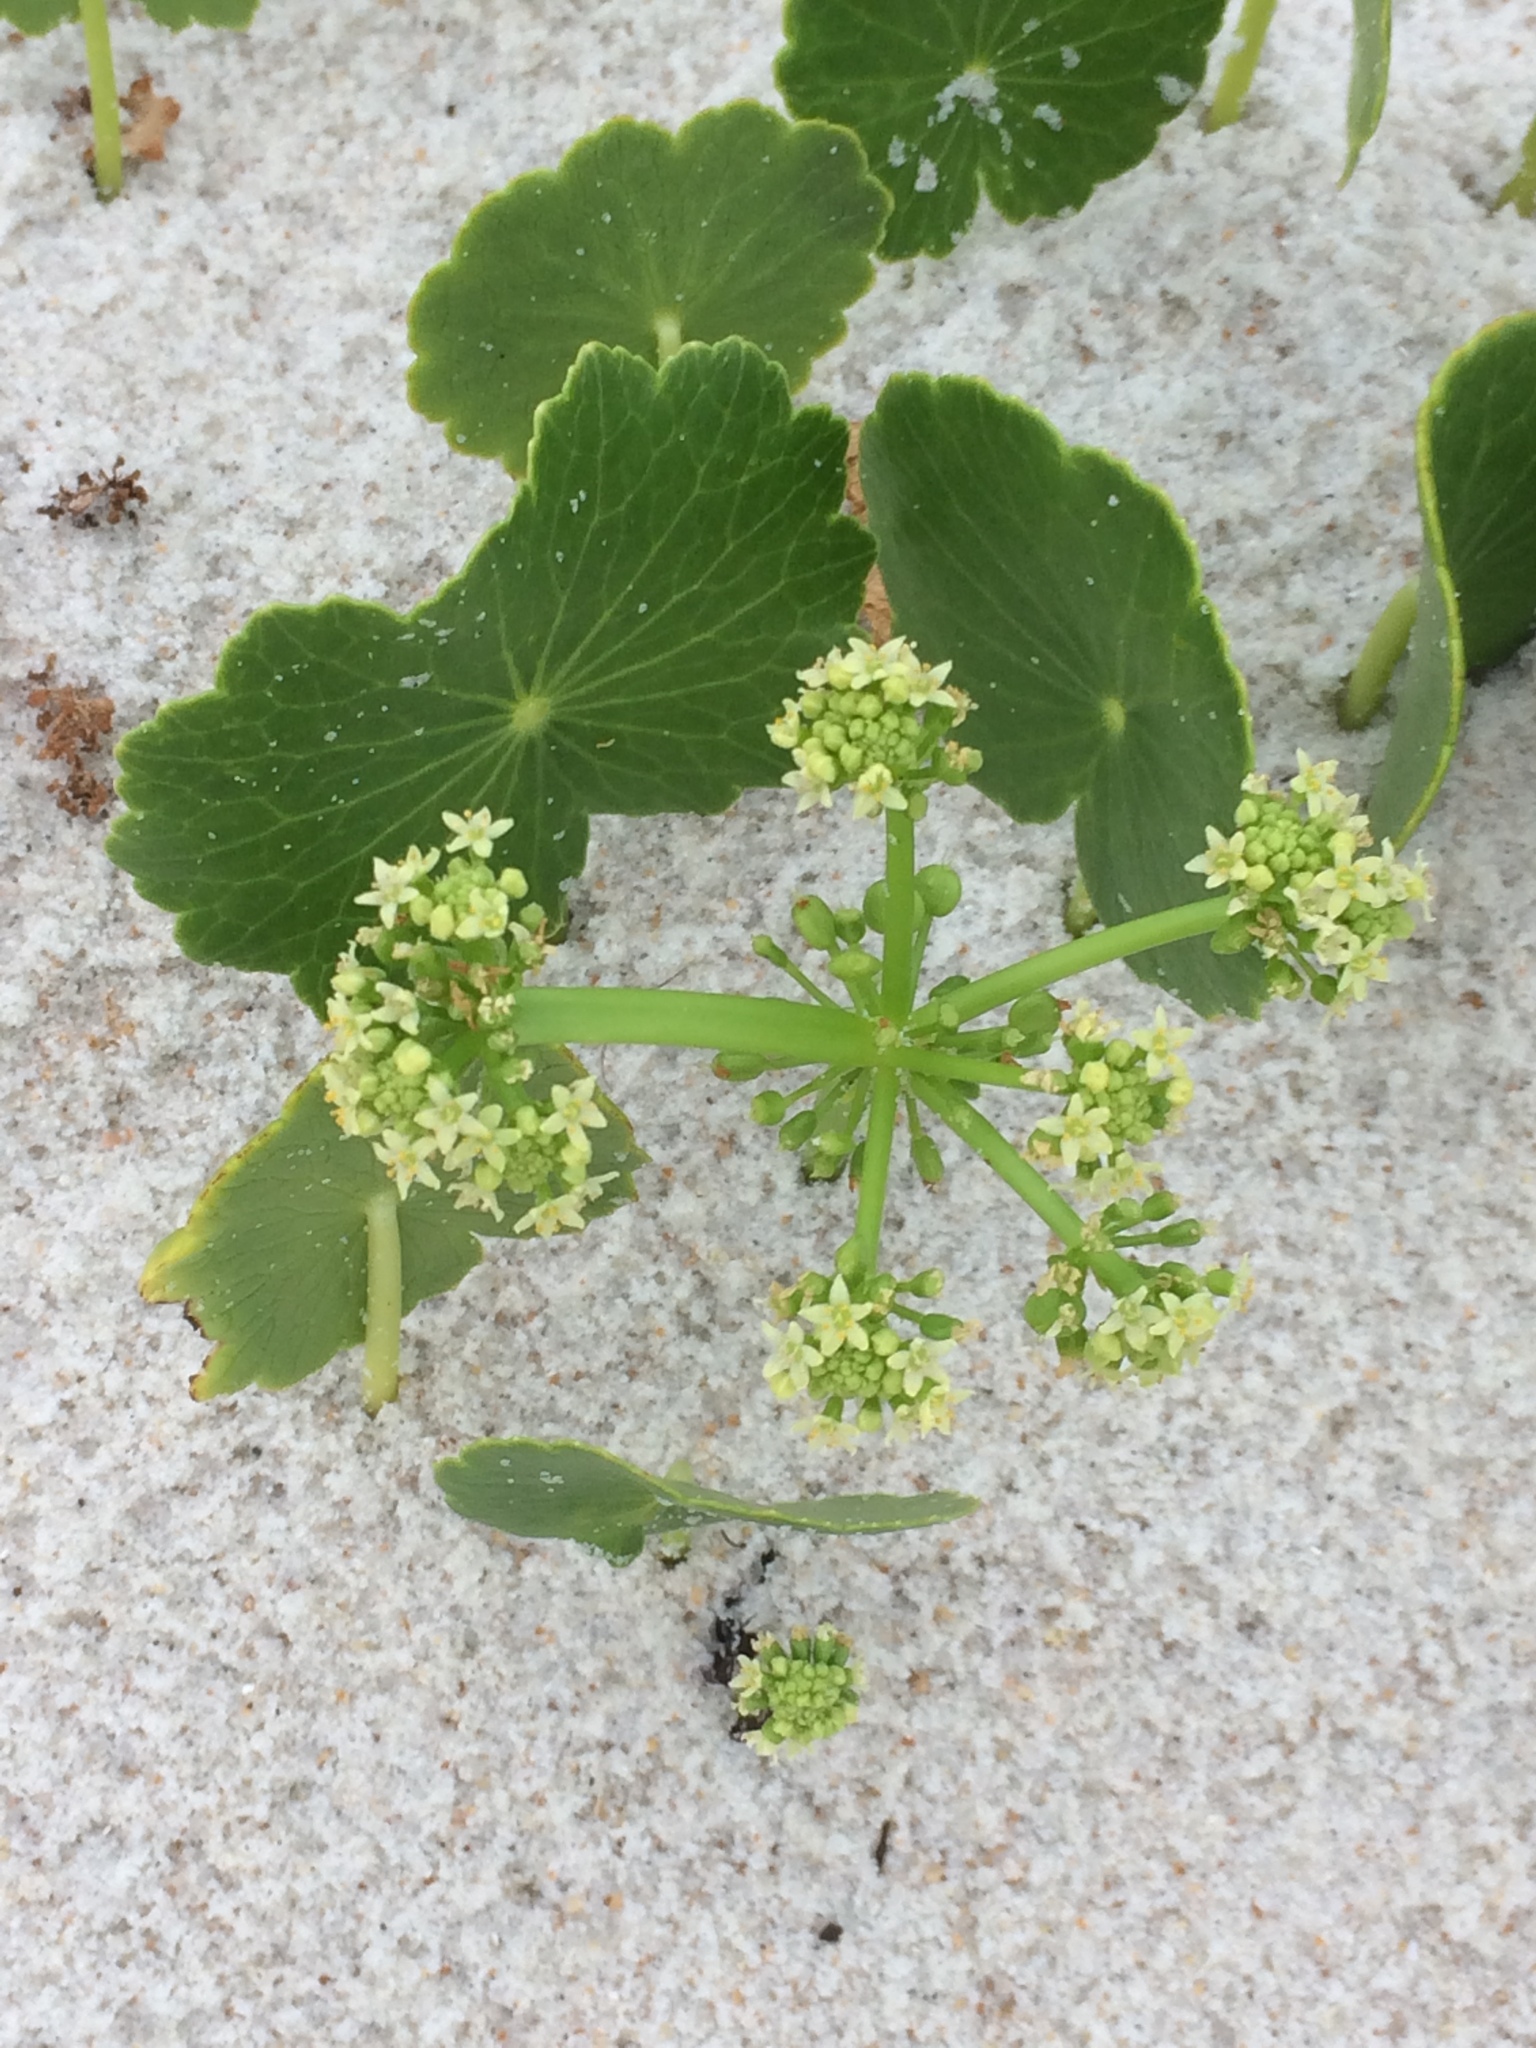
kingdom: Plantae
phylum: Tracheophyta
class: Magnoliopsida
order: Apiales
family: Araliaceae
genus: Hydrocotyle
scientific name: Hydrocotyle bonariensis
